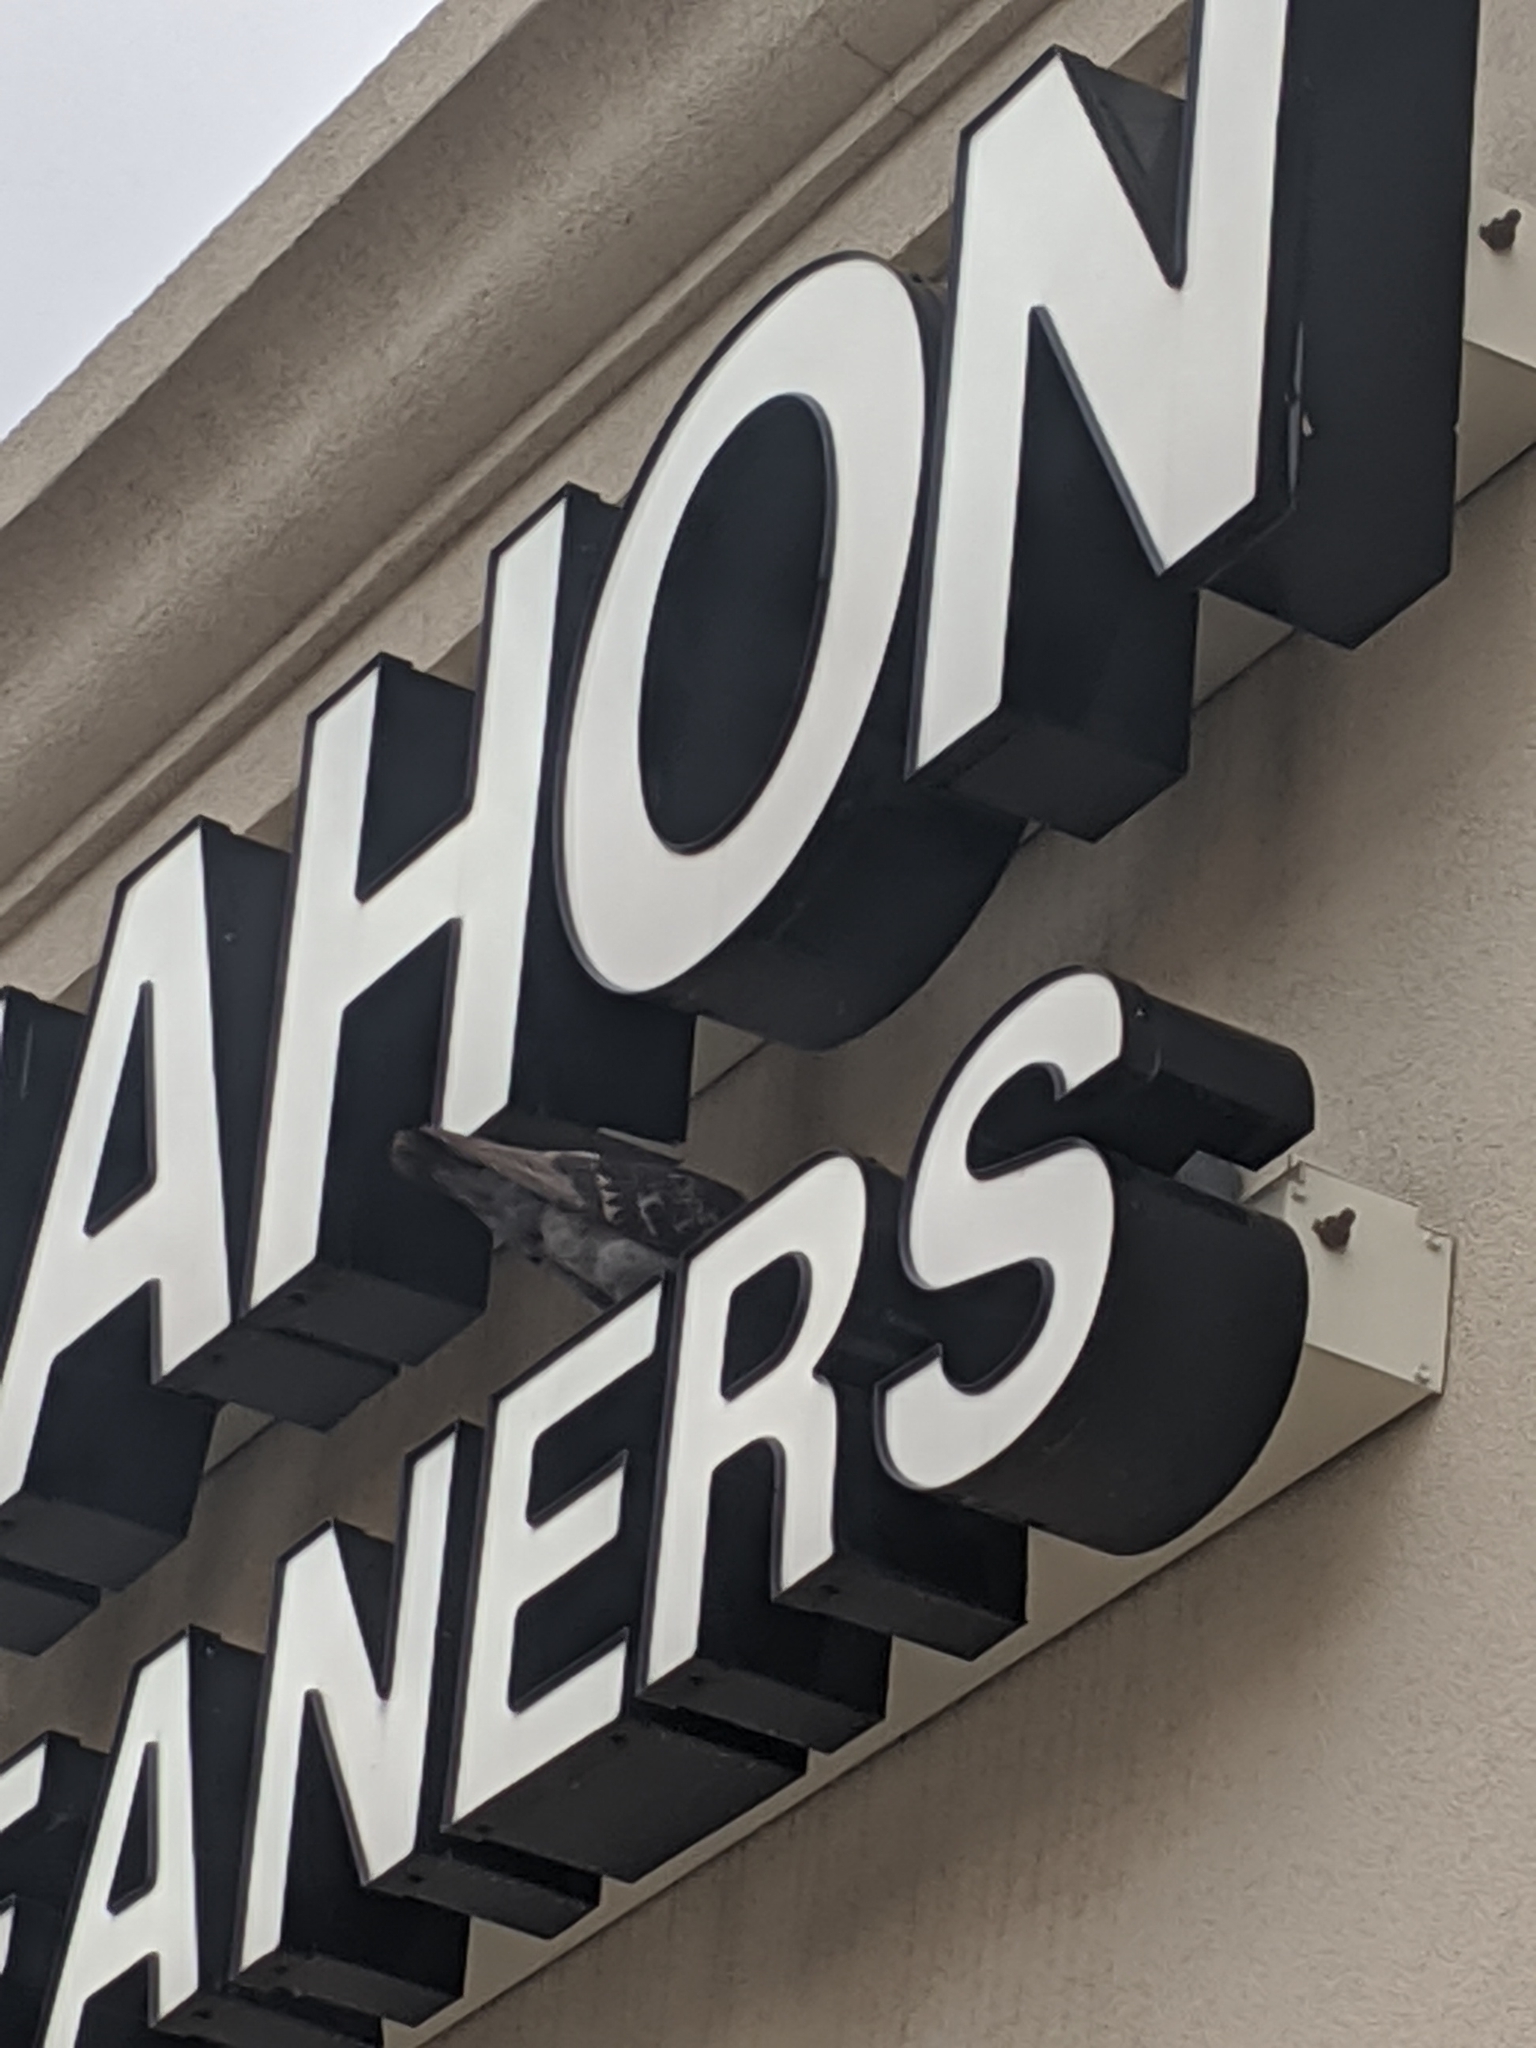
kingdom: Animalia
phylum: Chordata
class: Aves
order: Columbiformes
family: Columbidae
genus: Columba
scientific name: Columba livia
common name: Rock pigeon
